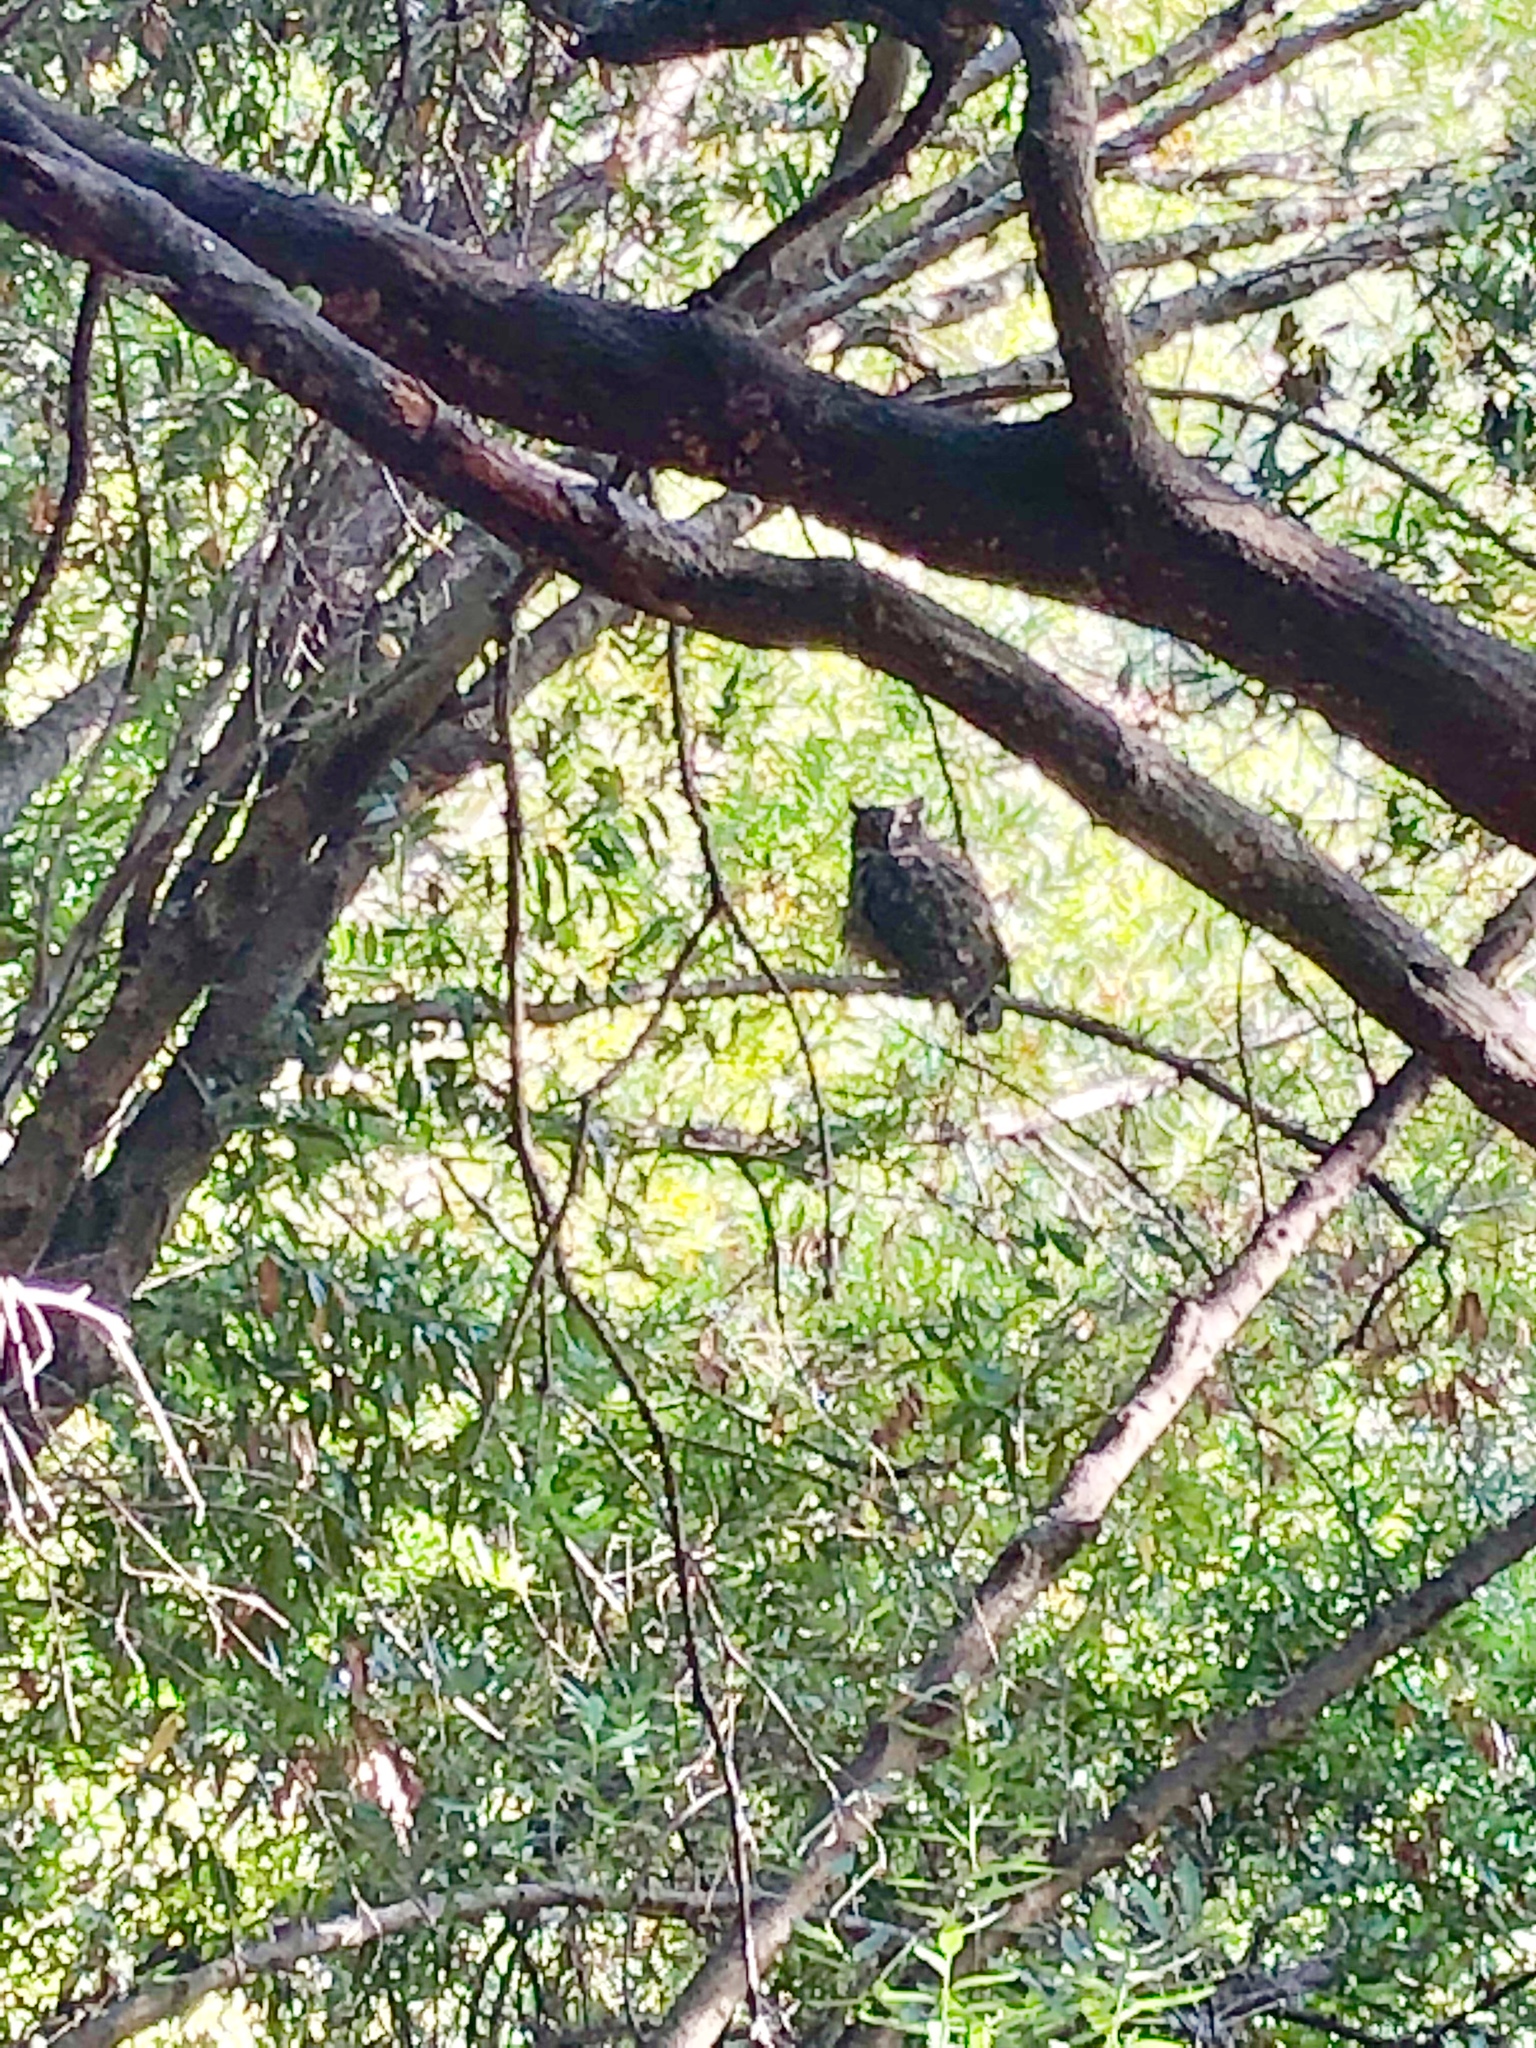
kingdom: Animalia
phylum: Chordata
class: Aves
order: Strigiformes
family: Strigidae
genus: Bubo
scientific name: Bubo virginianus
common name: Great horned owl
